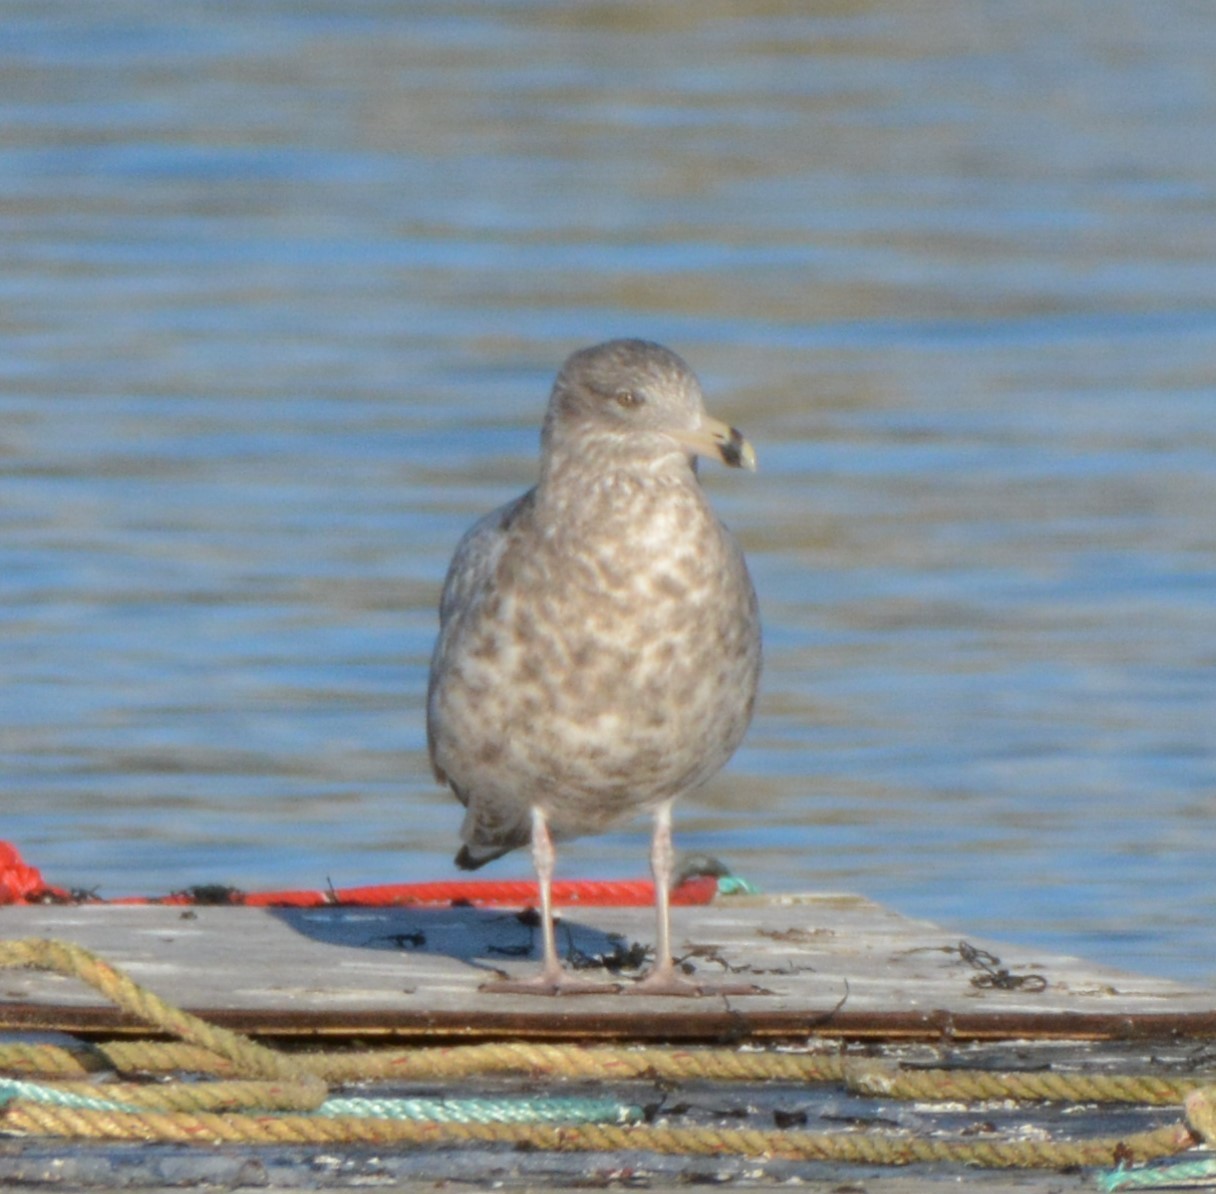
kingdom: Animalia
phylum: Chordata
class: Aves
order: Charadriiformes
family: Laridae
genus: Larus
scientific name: Larus argentatus
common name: Herring gull
